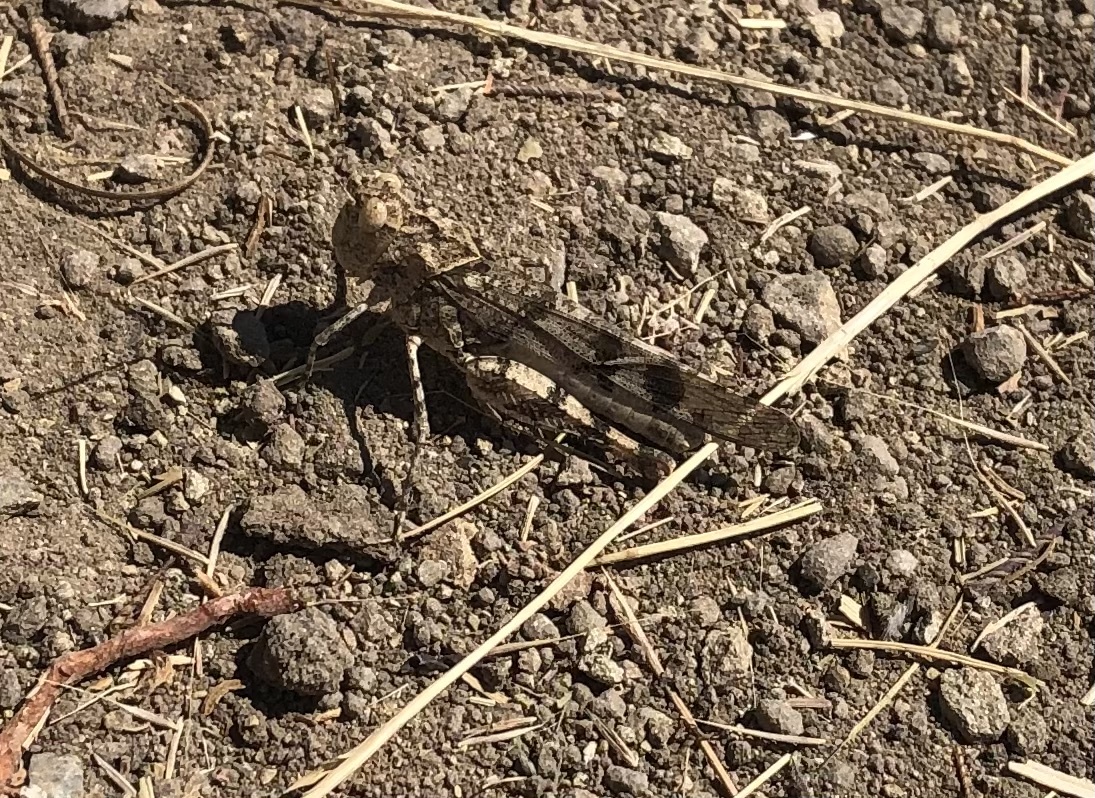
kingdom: Animalia
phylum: Arthropoda
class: Insecta
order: Orthoptera
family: Acrididae
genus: Dissosteira
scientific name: Dissosteira pictipennis
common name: California rose-winged grasshopper
